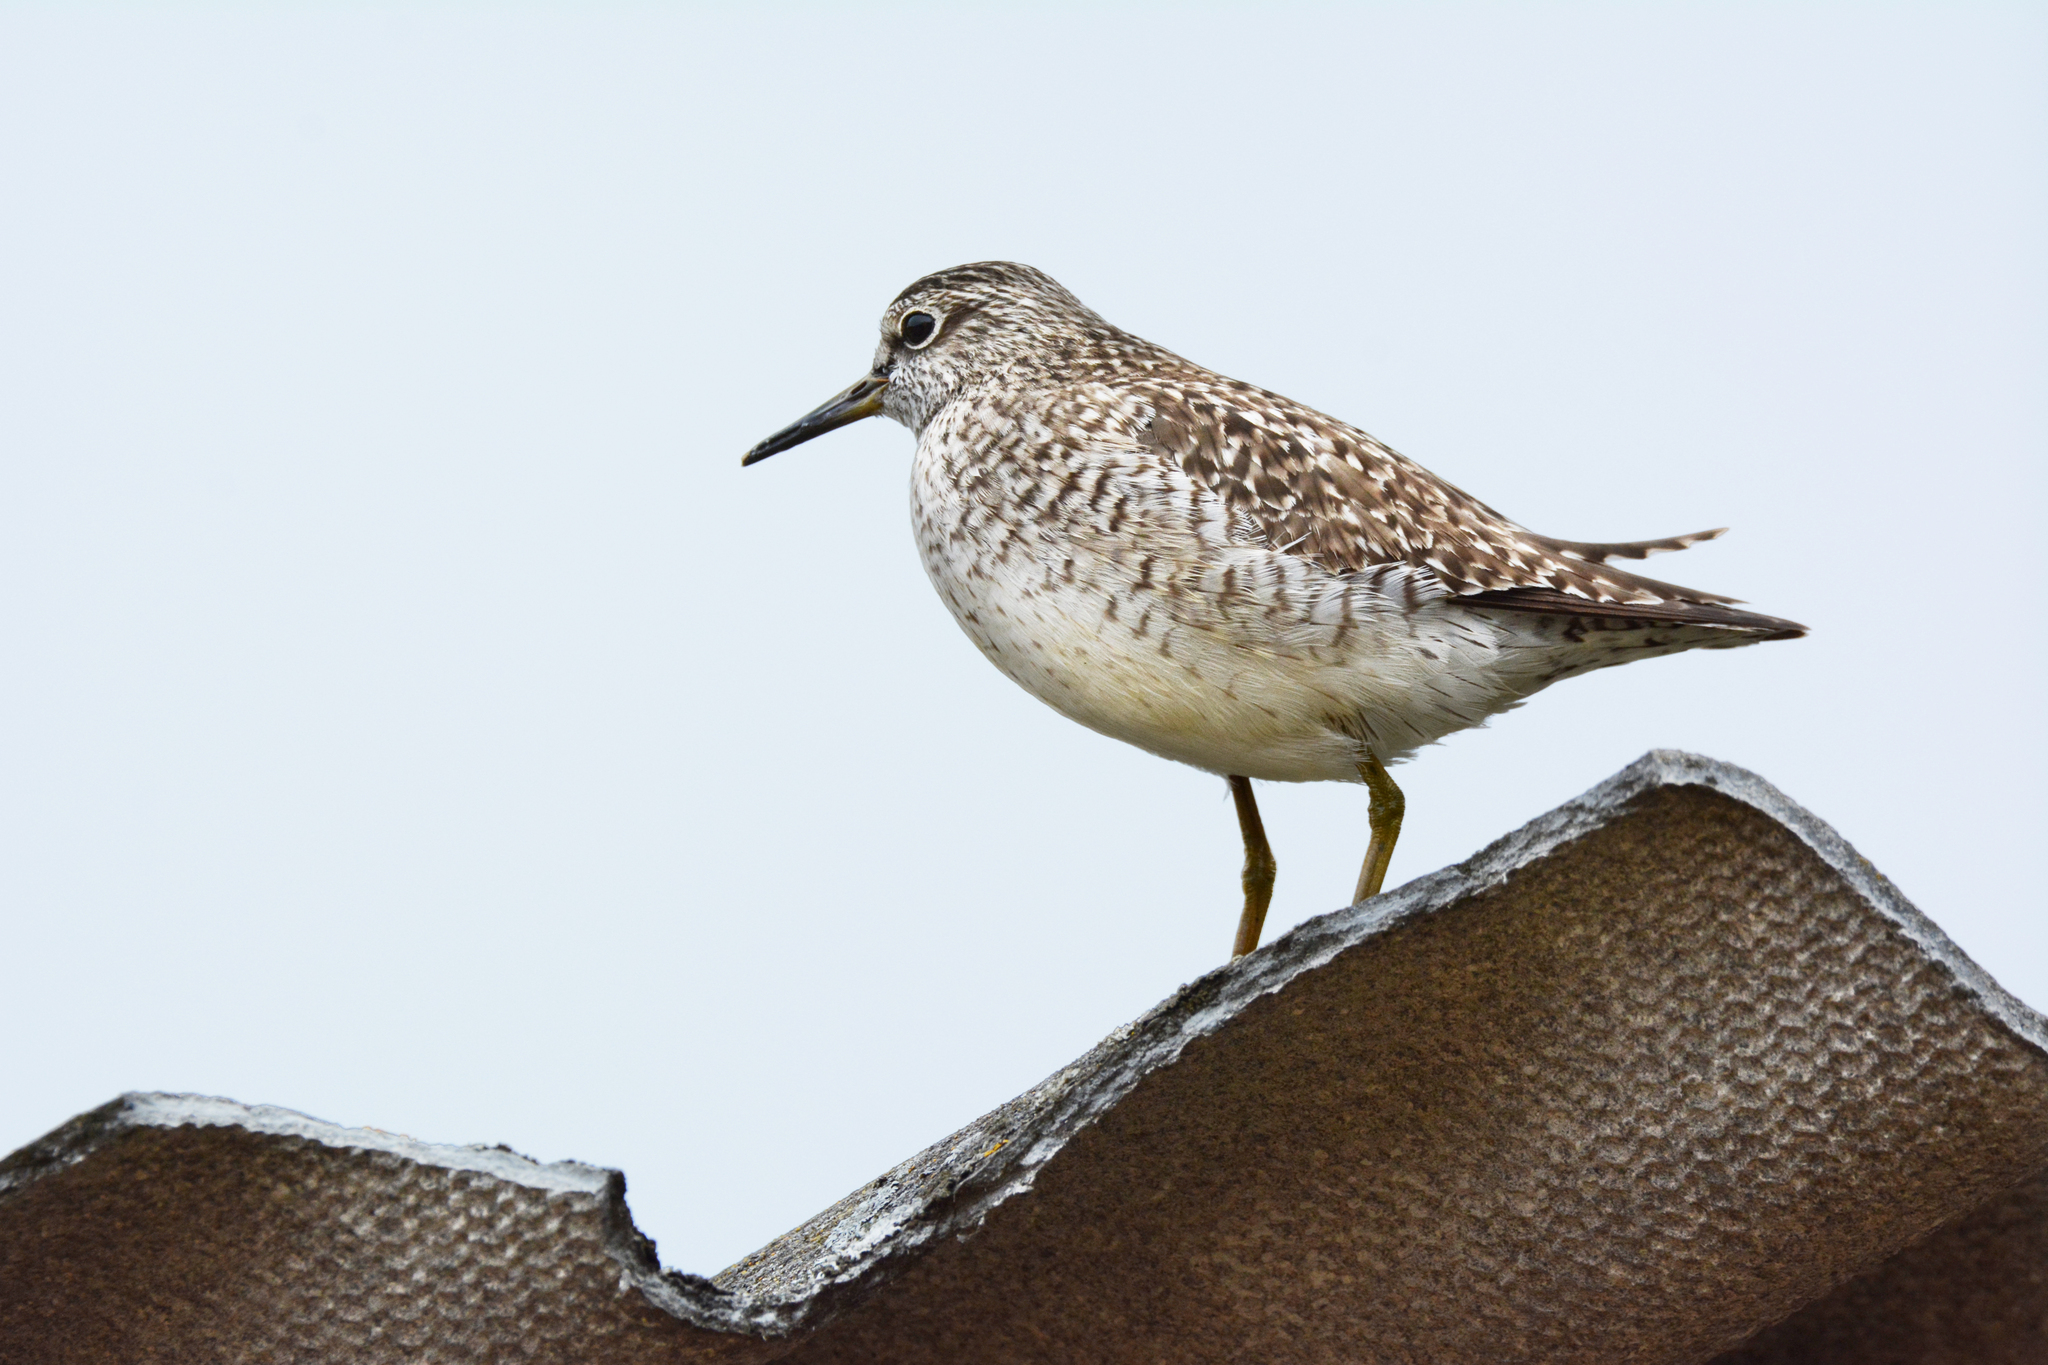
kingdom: Animalia
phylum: Chordata
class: Aves
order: Charadriiformes
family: Scolopacidae
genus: Tringa
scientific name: Tringa glareola
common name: Wood sandpiper
